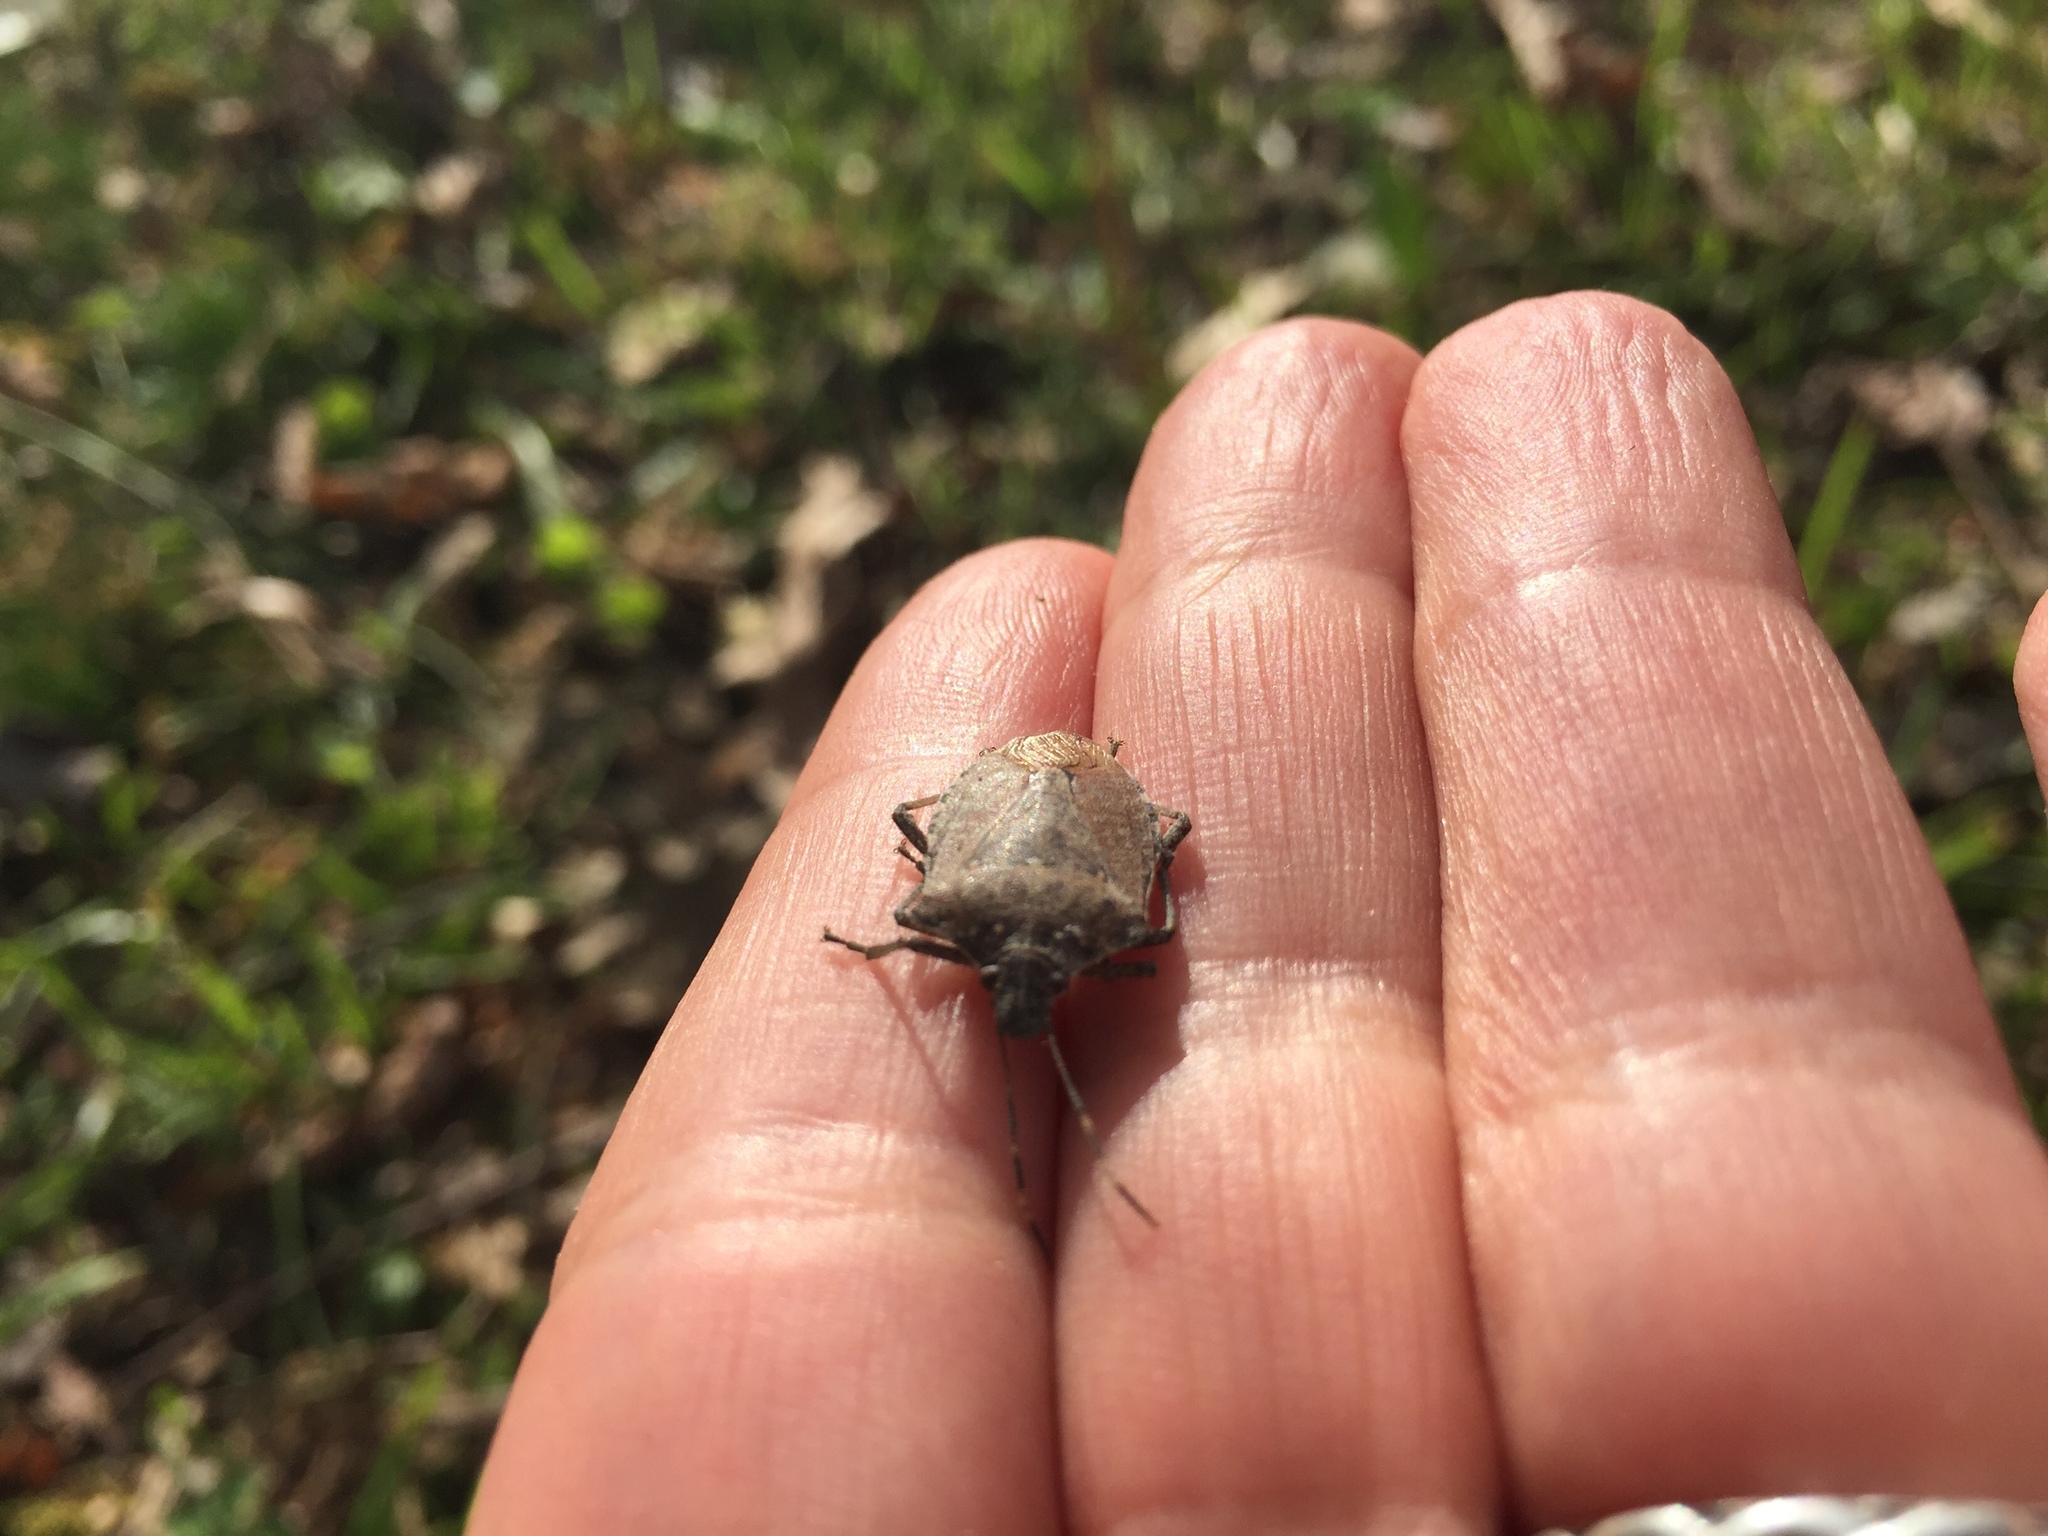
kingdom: Animalia
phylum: Arthropoda
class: Insecta
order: Hemiptera
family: Pentatomidae
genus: Halyomorpha
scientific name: Halyomorpha halys
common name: Brown marmorated stink bug
